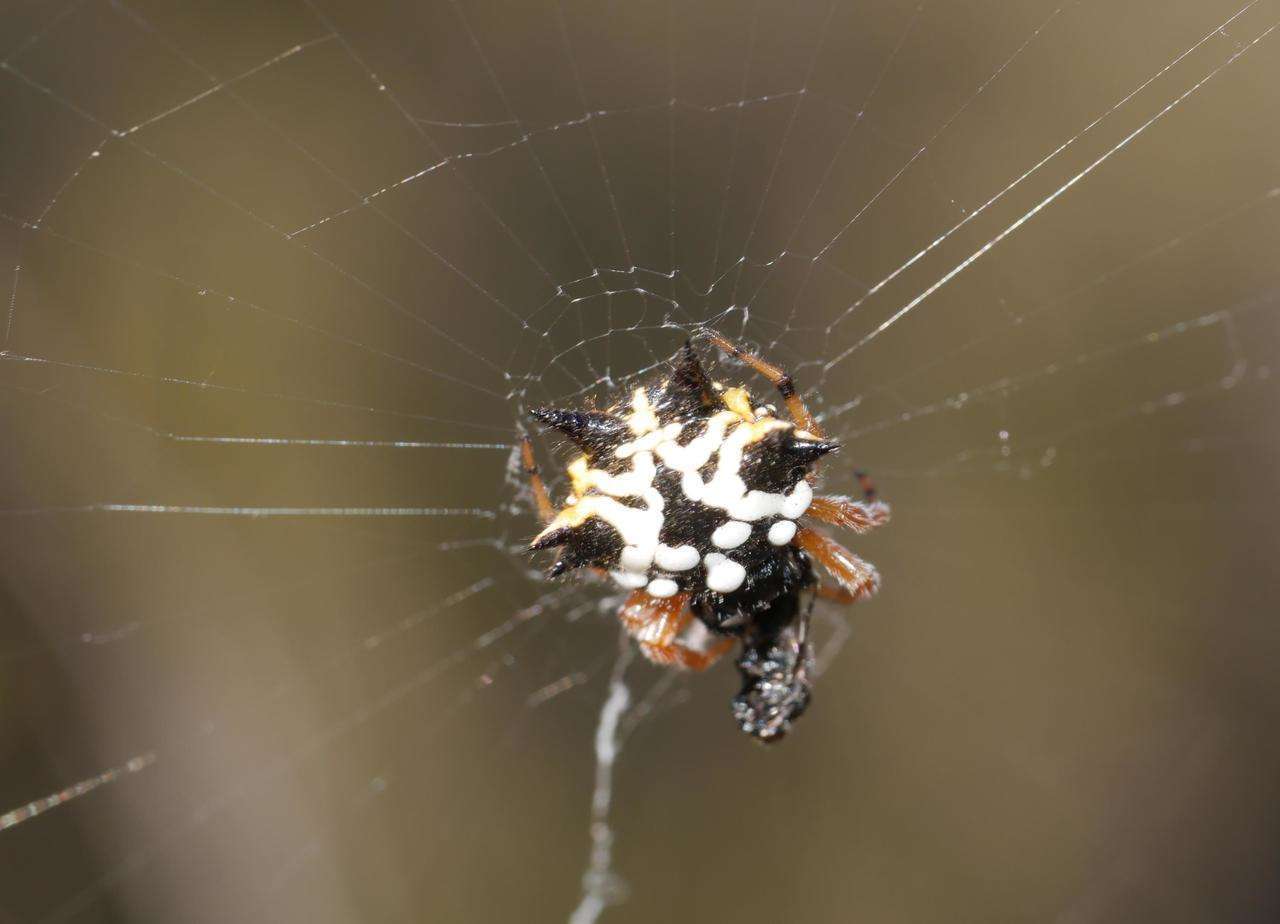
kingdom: Animalia
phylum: Arthropoda
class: Arachnida
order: Araneae
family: Araneidae
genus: Austracantha
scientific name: Austracantha minax
